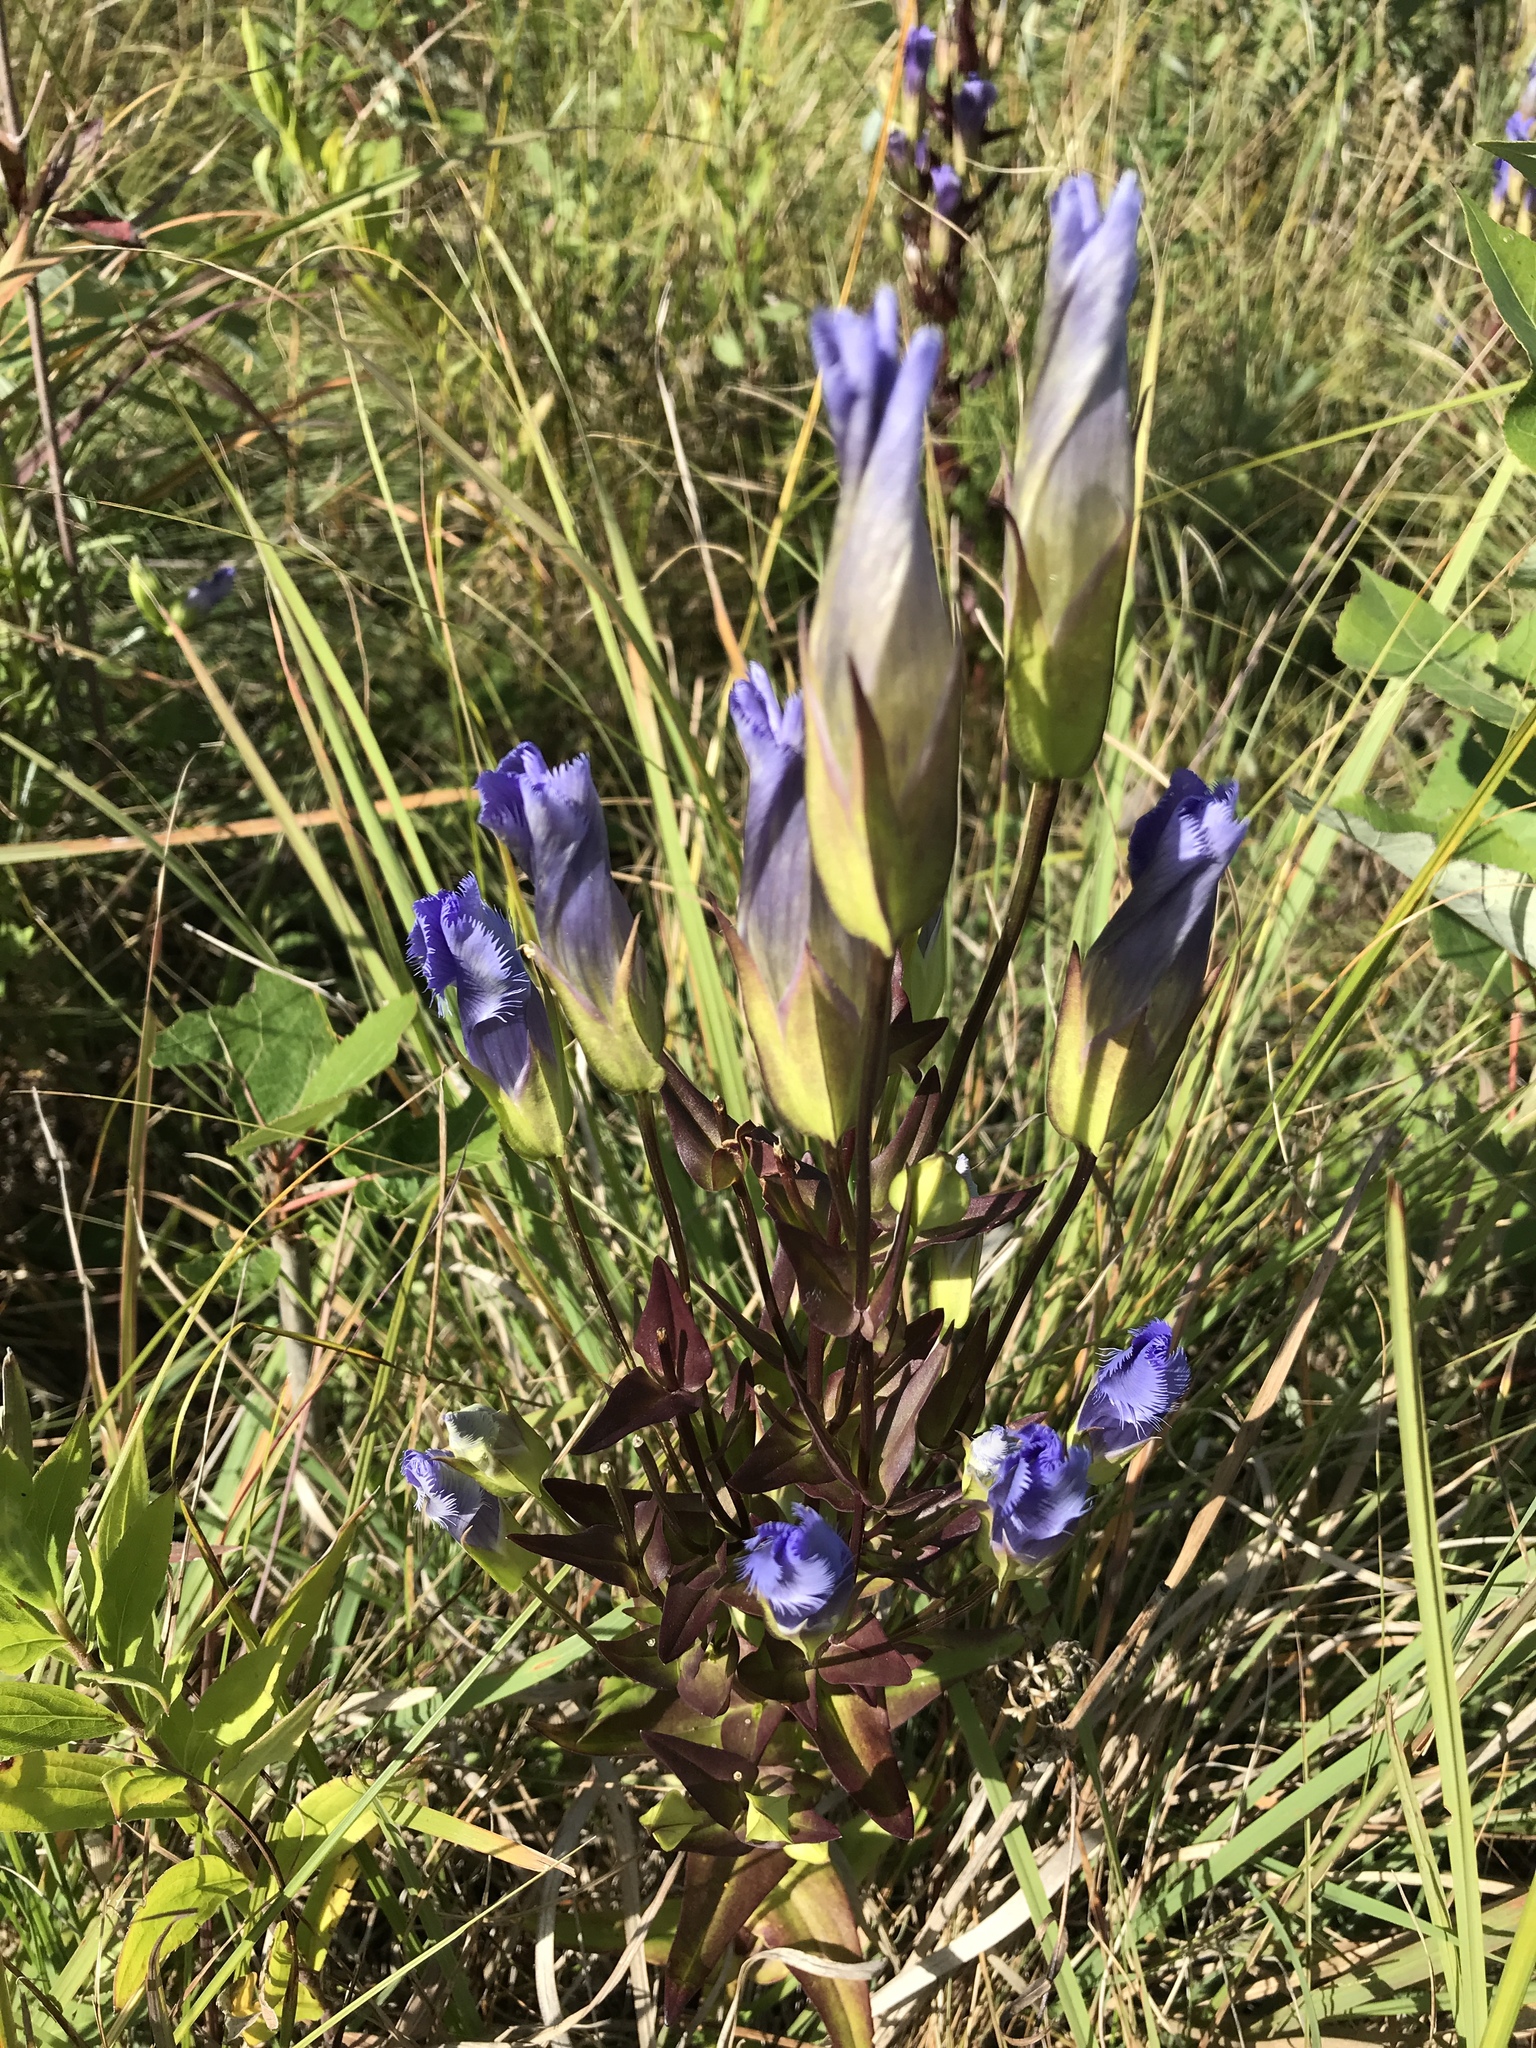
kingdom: Plantae
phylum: Tracheophyta
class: Magnoliopsida
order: Gentianales
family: Gentianaceae
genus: Gentianopsis
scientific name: Gentianopsis crinita
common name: Fringed-gentian
